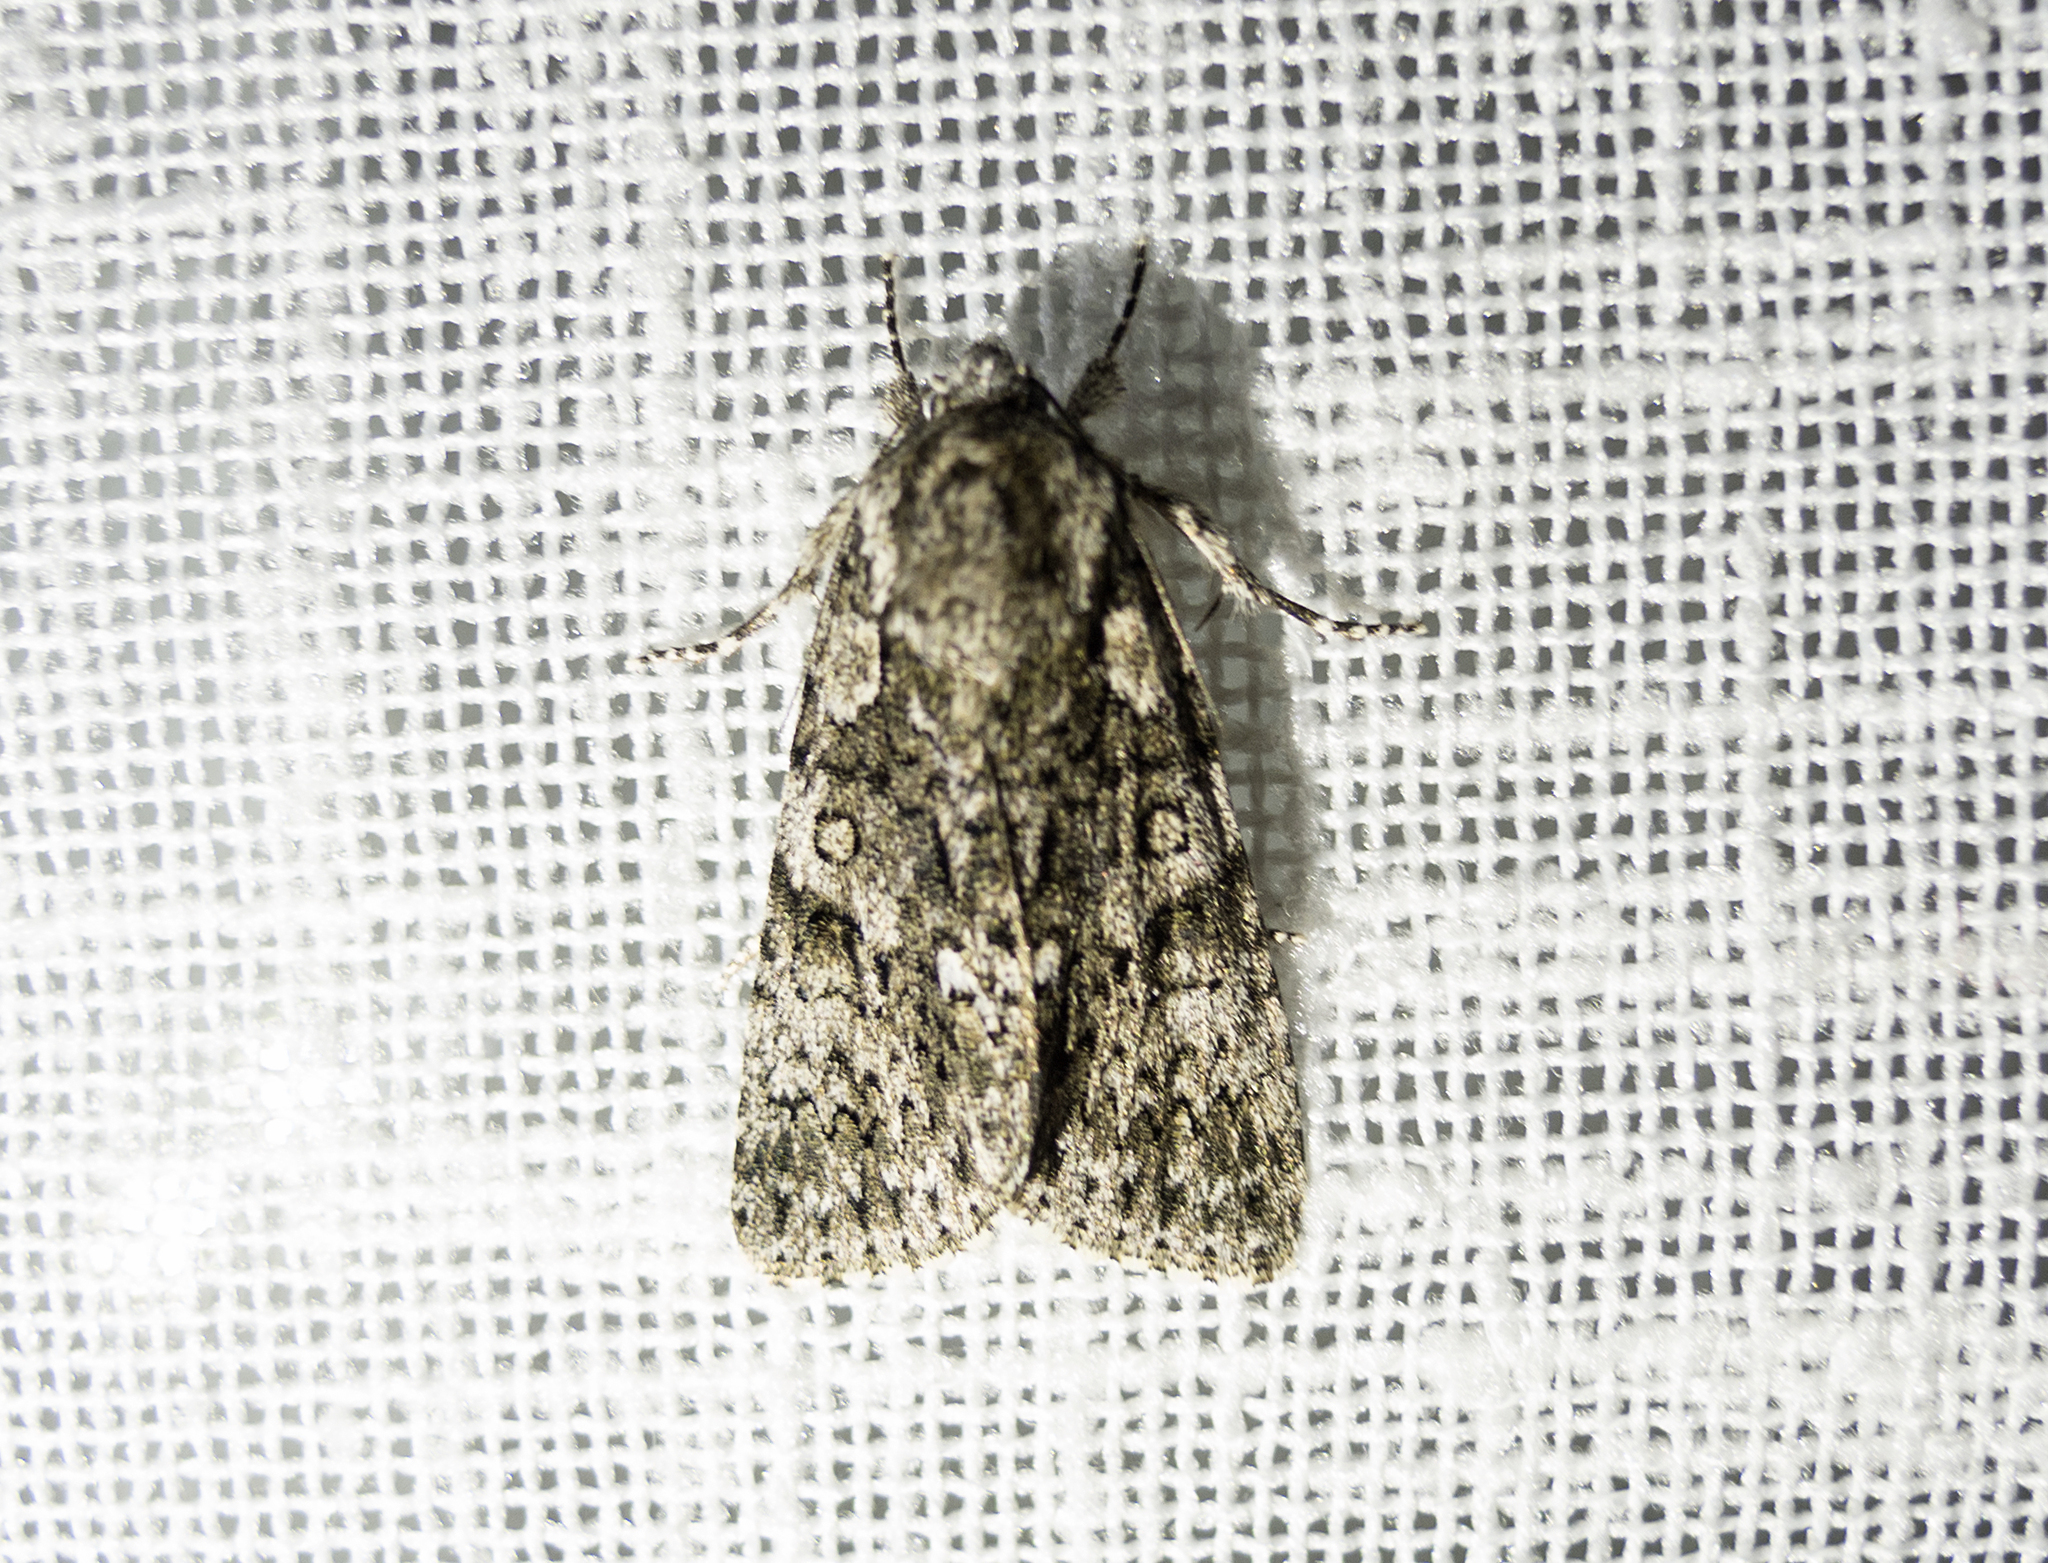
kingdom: Animalia
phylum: Arthropoda
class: Insecta
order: Lepidoptera
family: Noctuidae
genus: Acronicta
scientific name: Acronicta rumicis
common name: Knot grass
